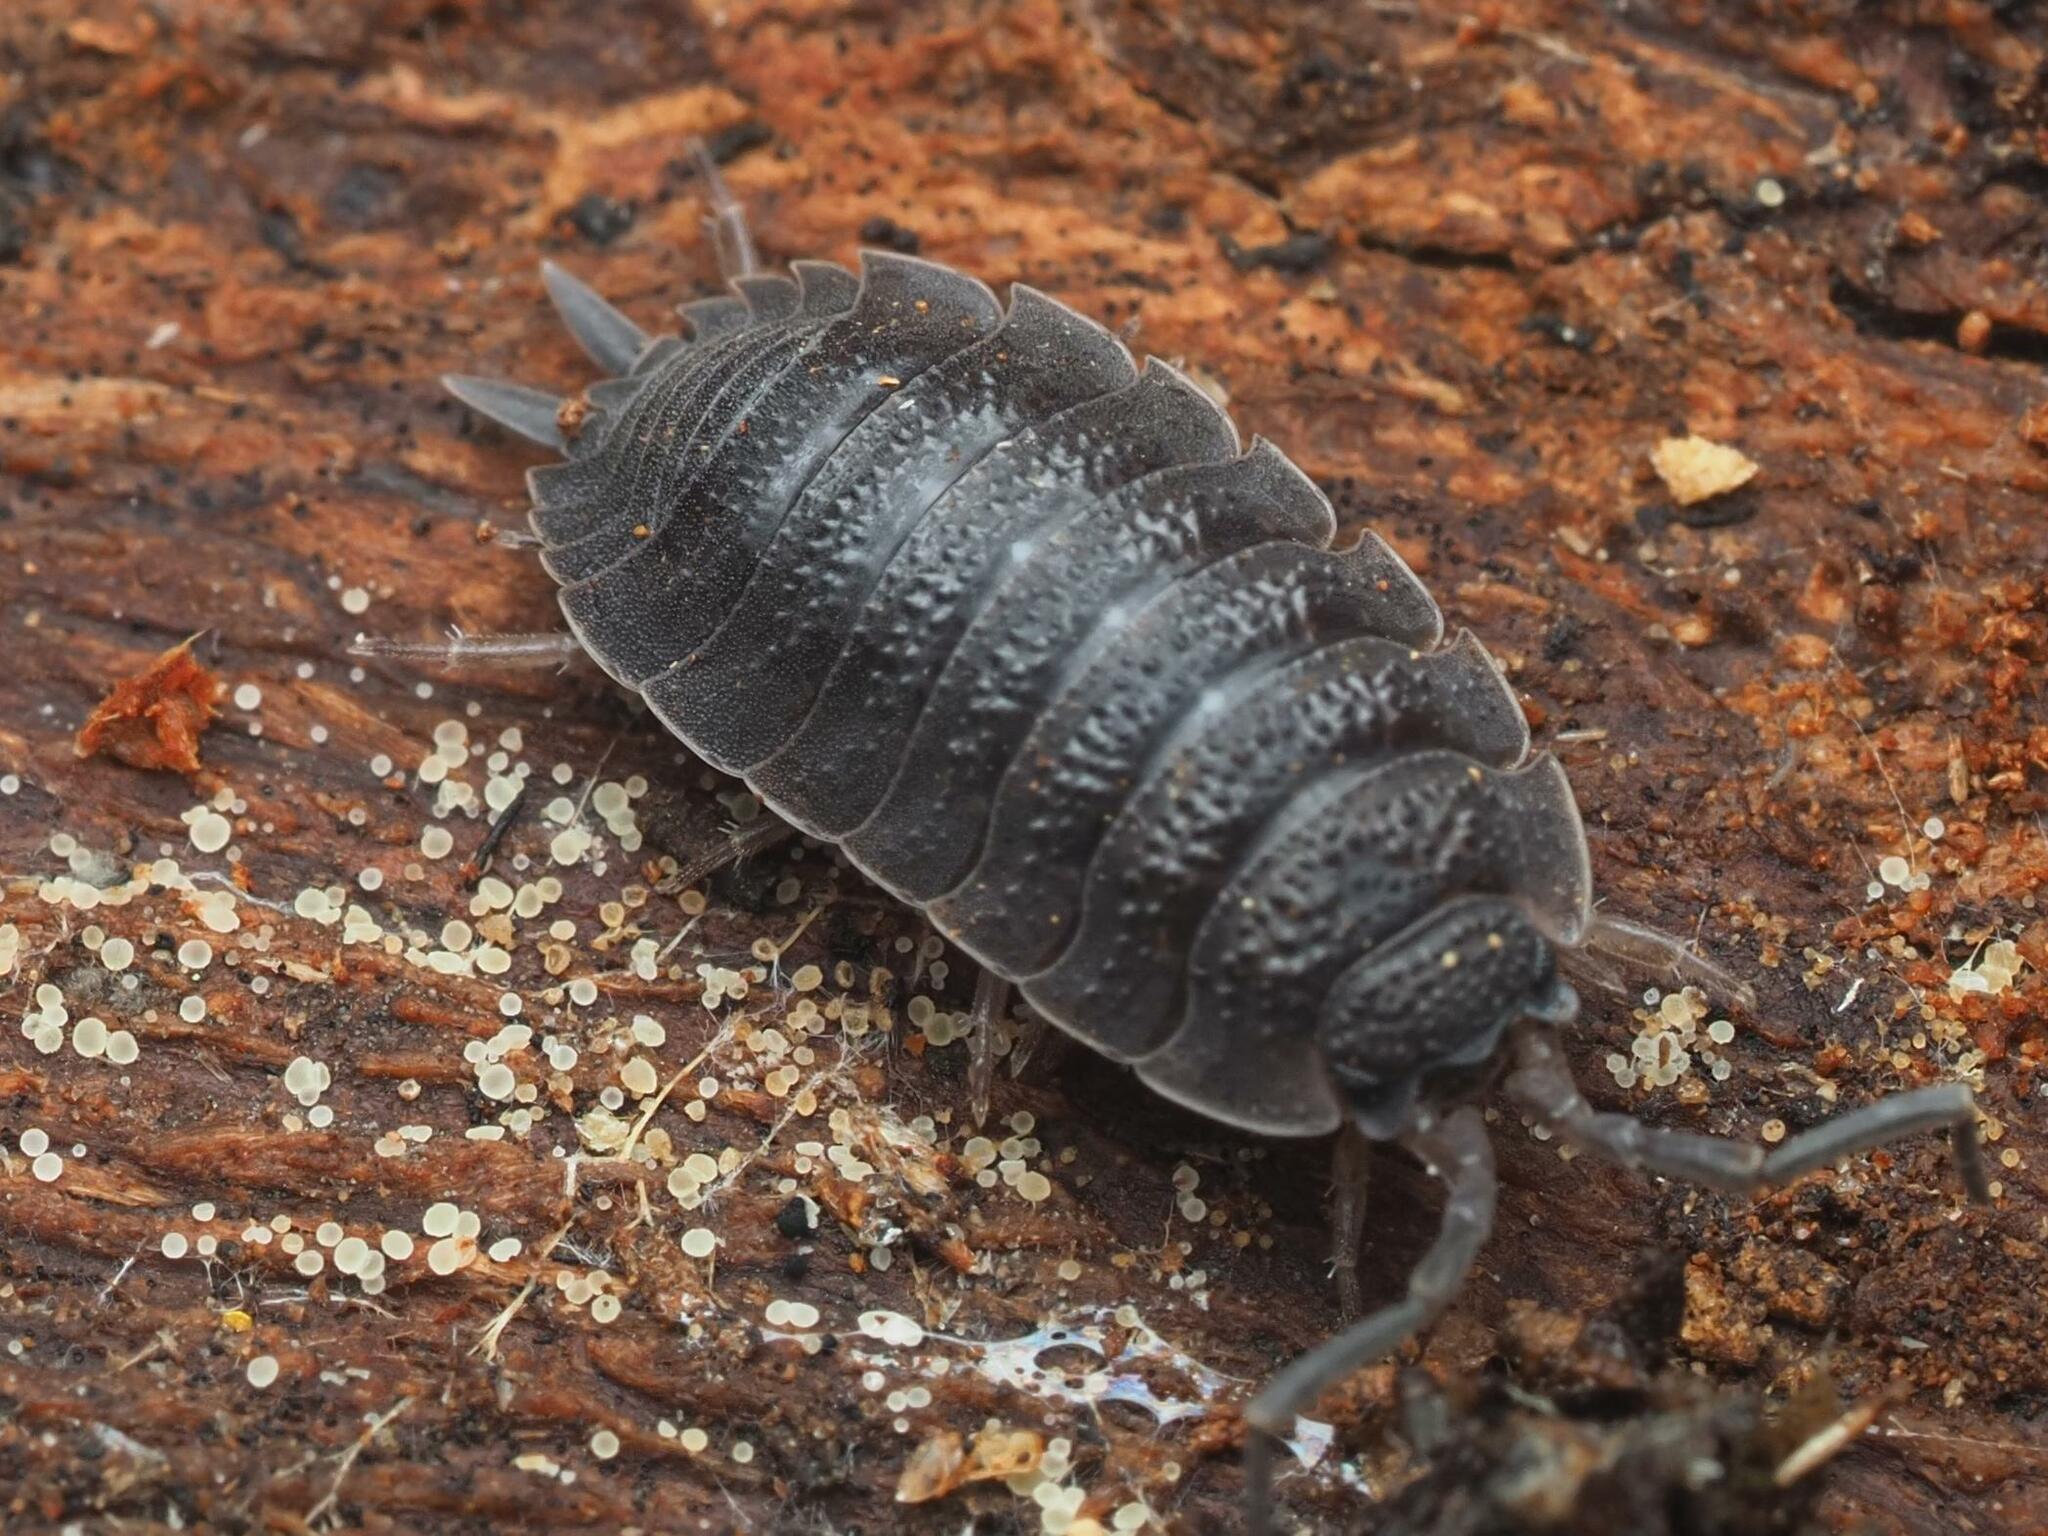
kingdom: Animalia
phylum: Arthropoda
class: Malacostraca
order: Isopoda
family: Porcellionidae
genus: Porcellio
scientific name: Porcellio scaber
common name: Common rough woodlouse
